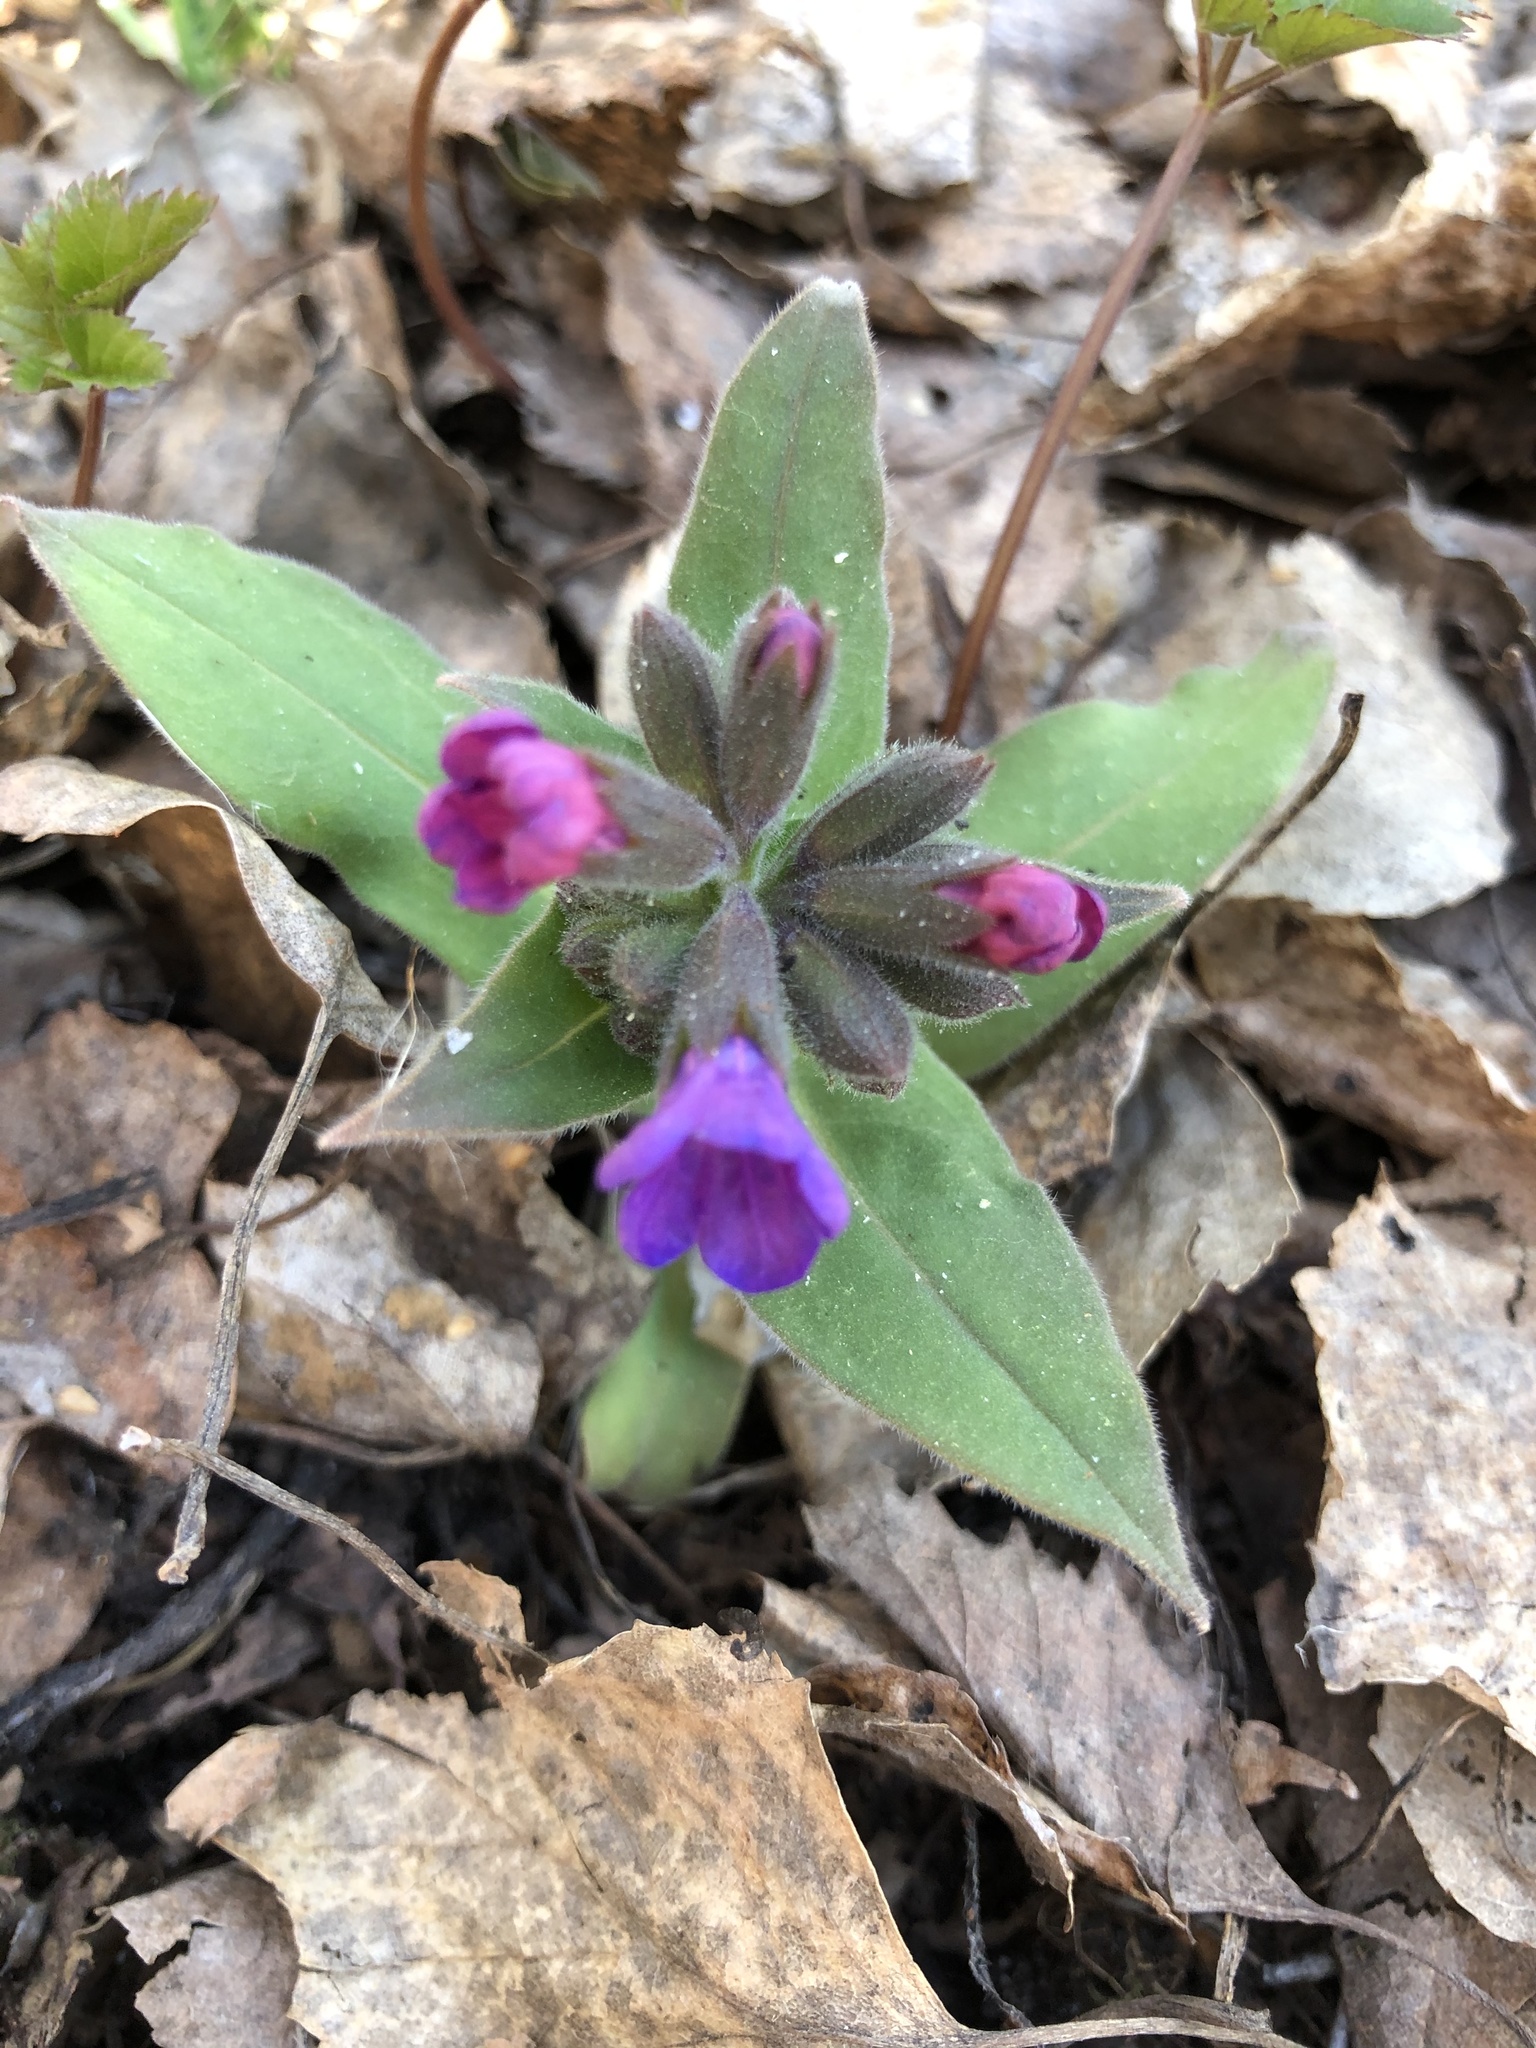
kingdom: Plantae
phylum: Tracheophyta
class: Magnoliopsida
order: Boraginales
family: Boraginaceae
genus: Pulmonaria
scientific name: Pulmonaria mollis
